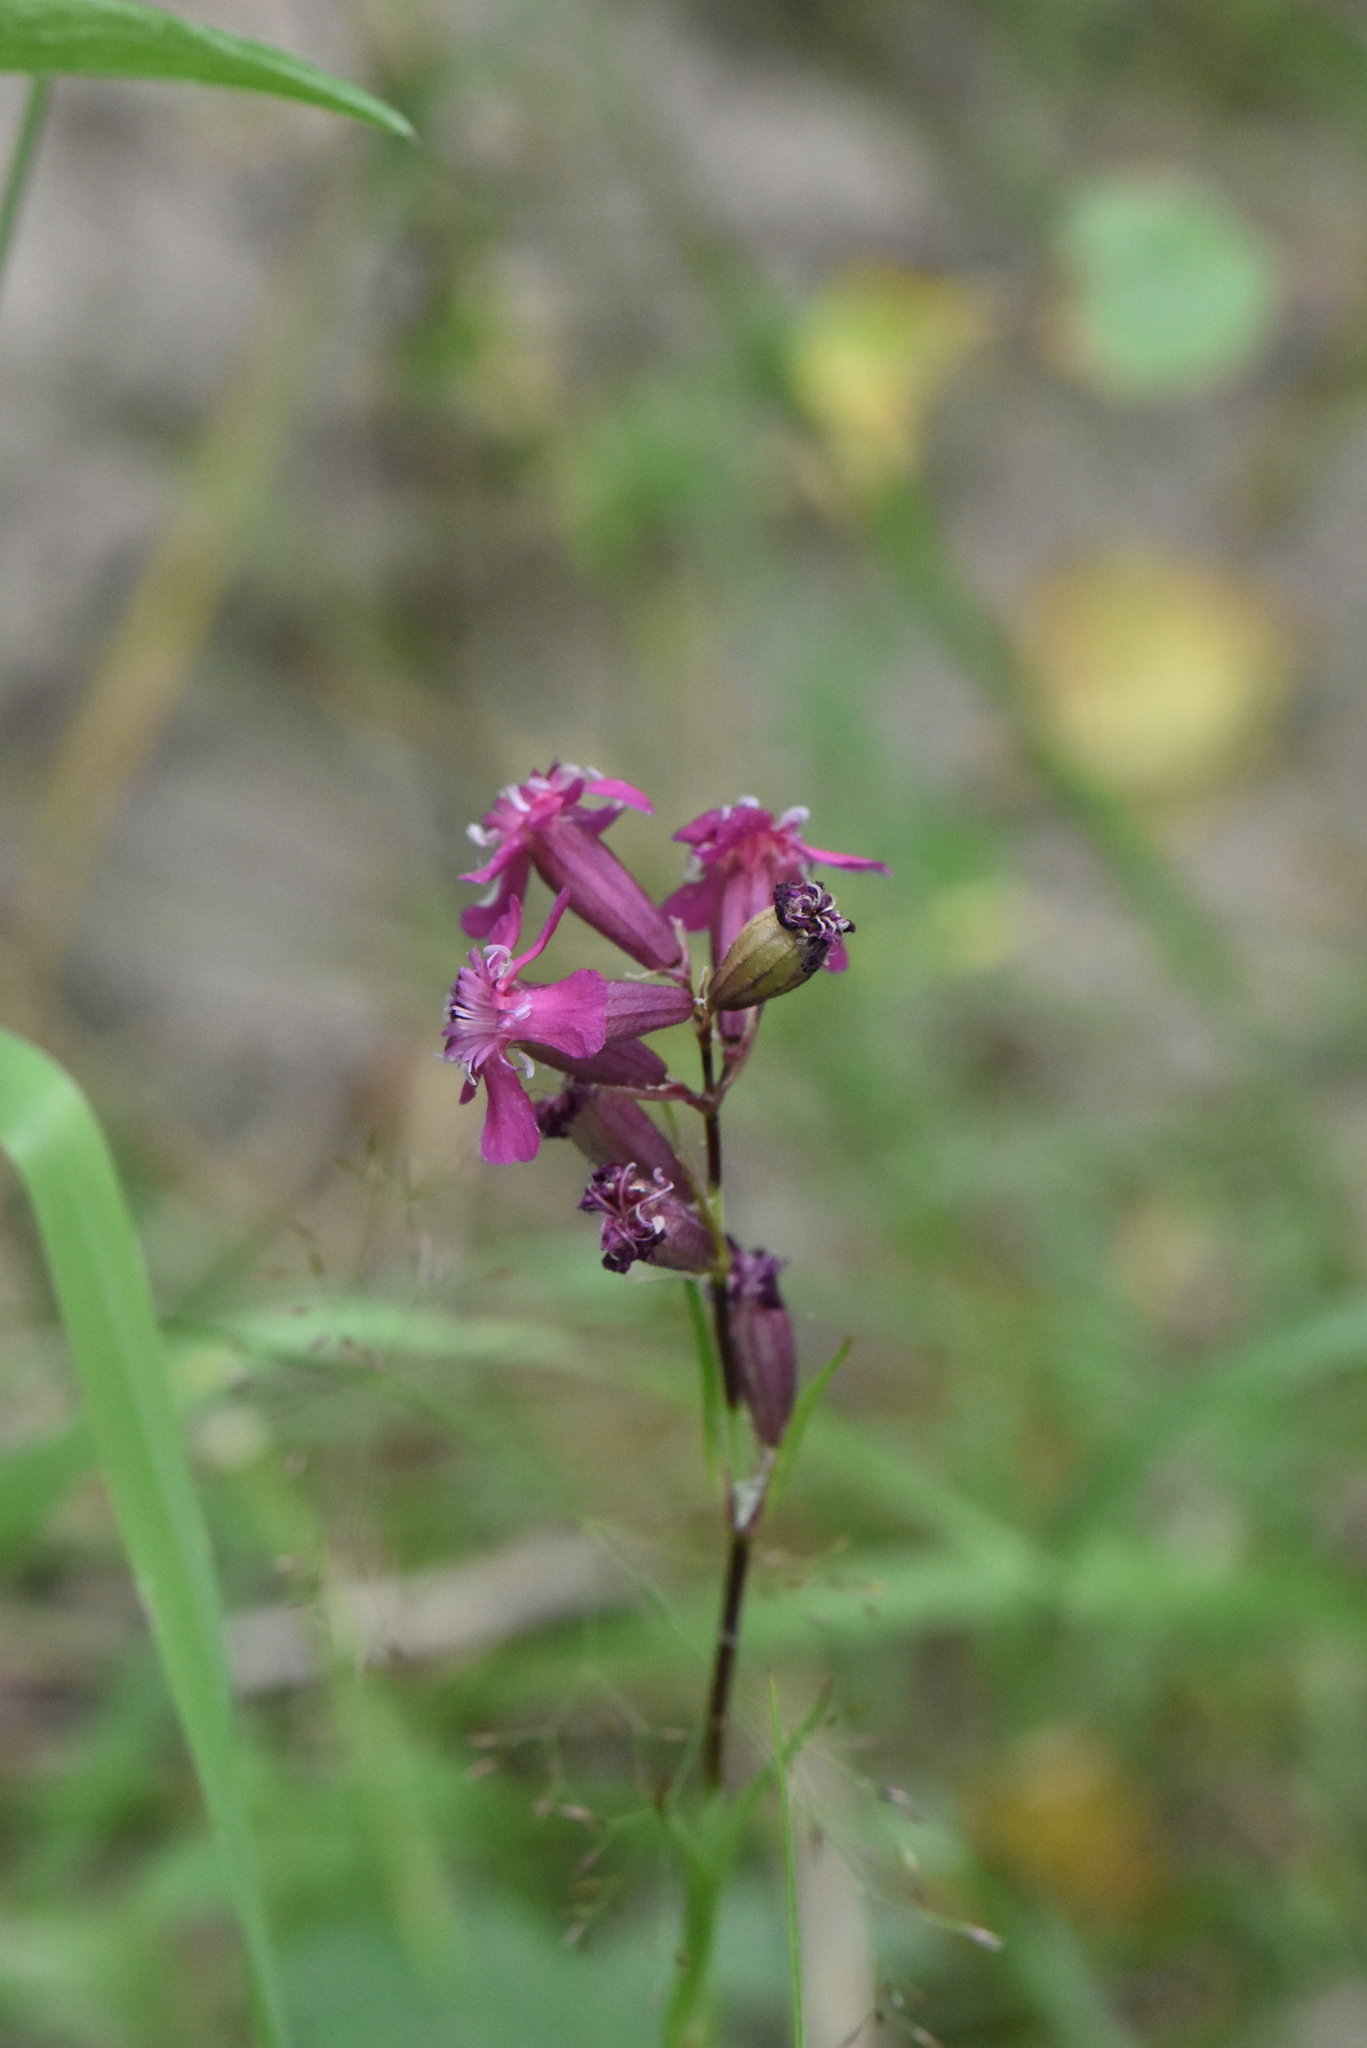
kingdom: Plantae
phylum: Tracheophyta
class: Magnoliopsida
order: Caryophyllales
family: Caryophyllaceae
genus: Viscaria
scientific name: Viscaria vulgaris
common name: Clammy campion
